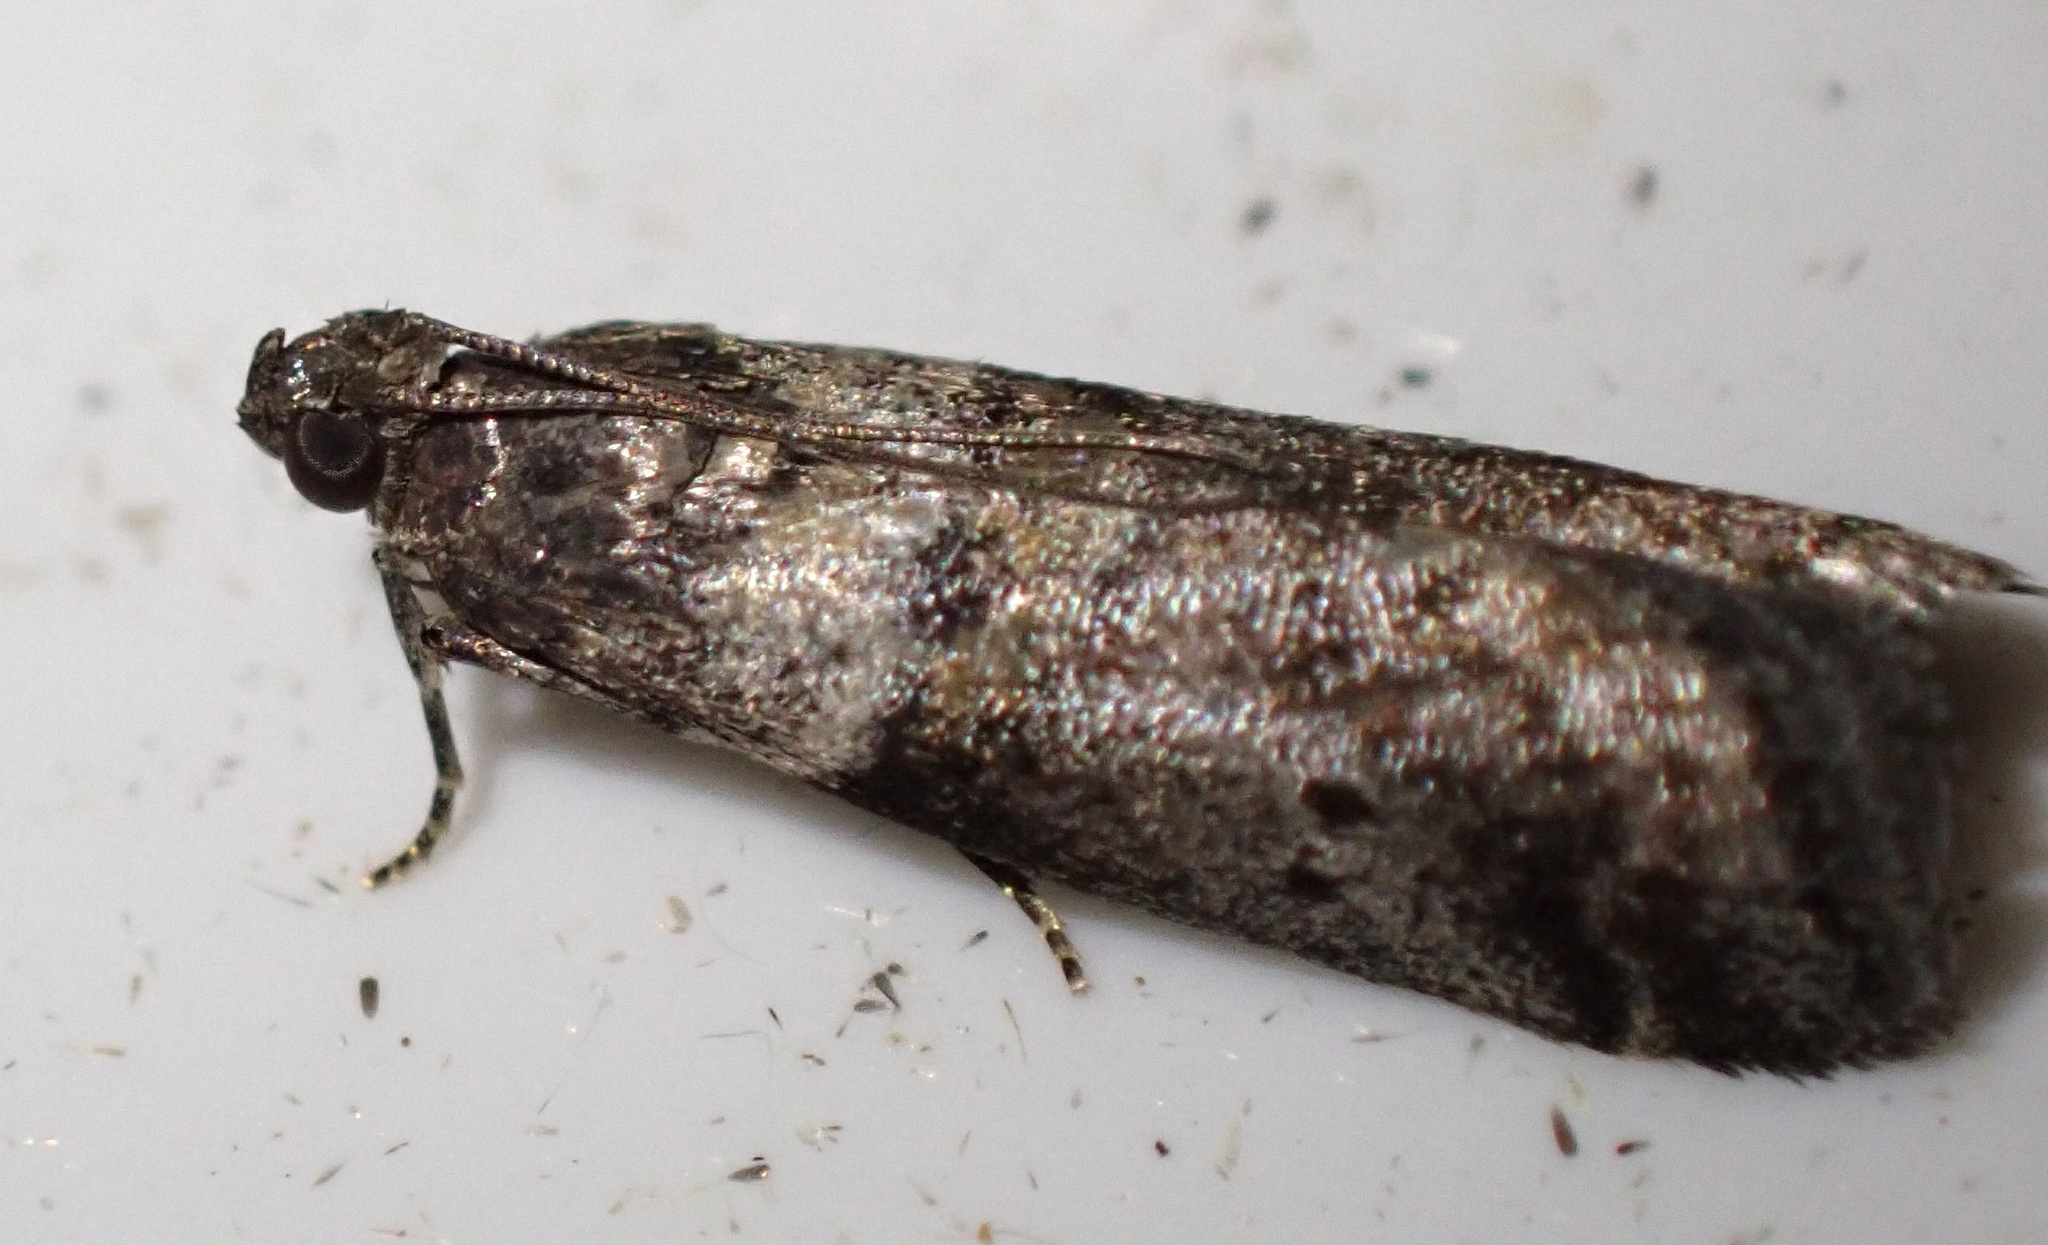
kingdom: Animalia
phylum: Arthropoda
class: Insecta
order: Lepidoptera
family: Pyralidae
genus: Acrobasis
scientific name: Acrobasis consociella
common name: Broad-barred knot-horn
